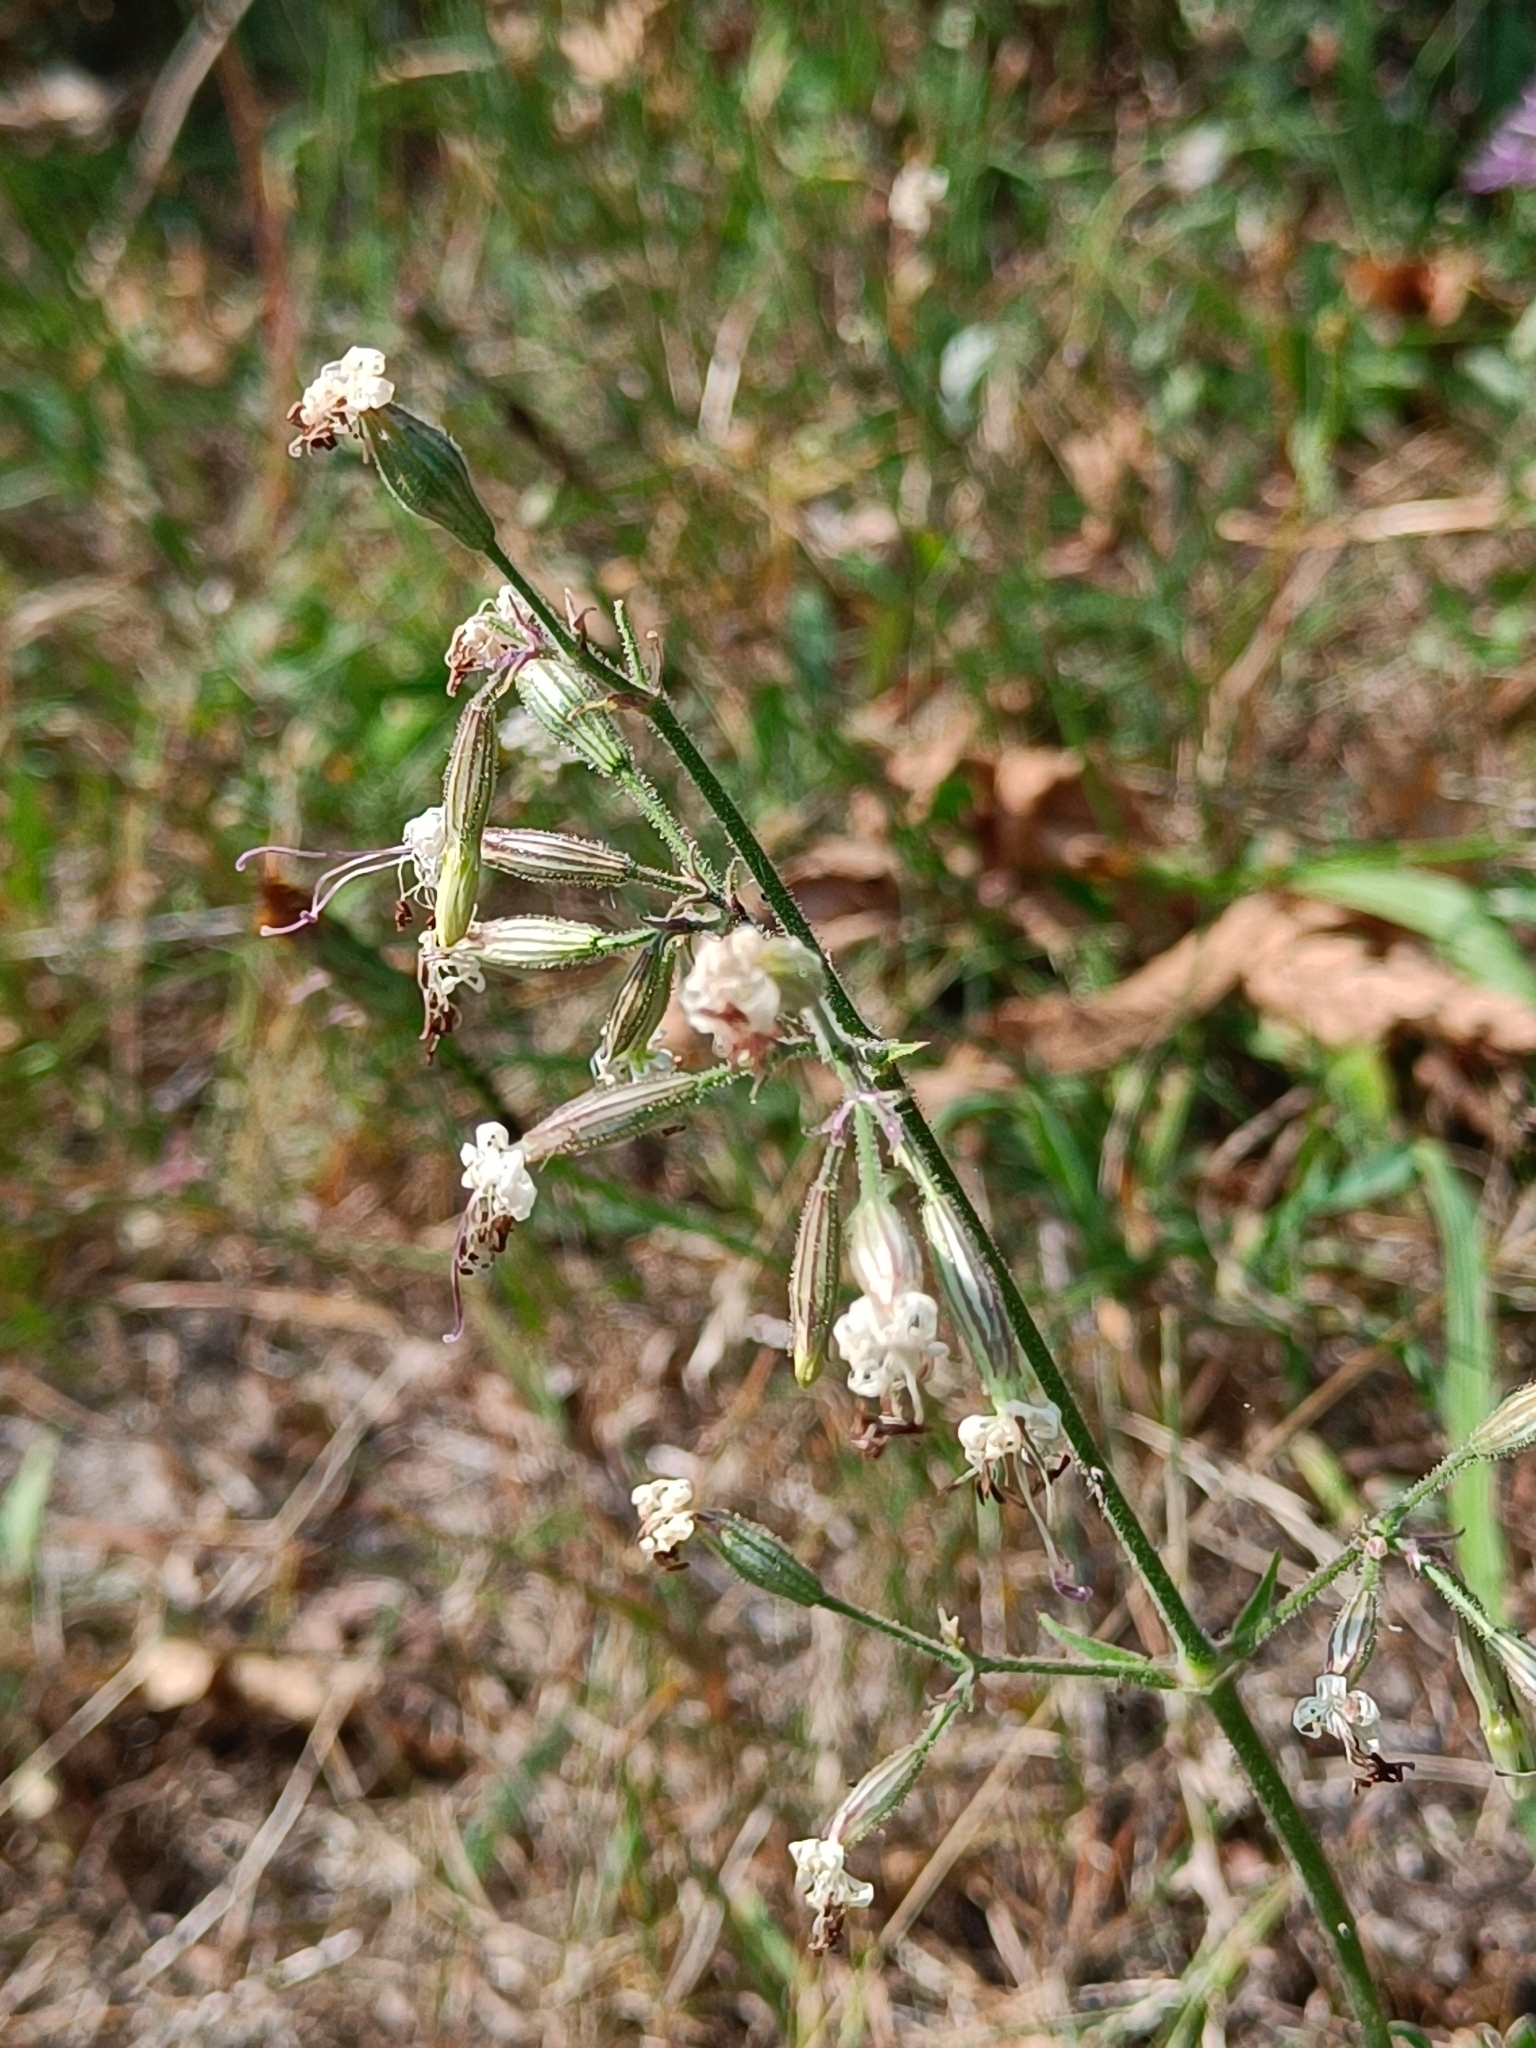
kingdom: Plantae
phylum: Tracheophyta
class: Magnoliopsida
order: Caryophyllales
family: Caryophyllaceae
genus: Silene
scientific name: Silene nutans
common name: Nottingham catchfly
